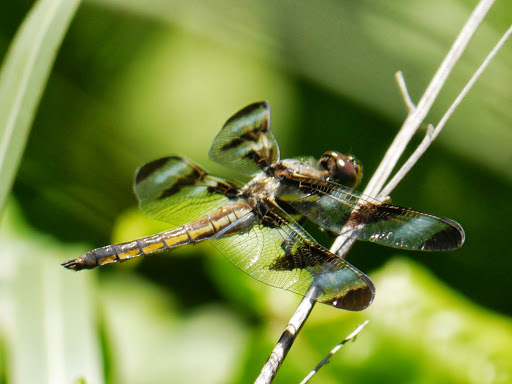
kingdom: Animalia
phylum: Arthropoda
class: Insecta
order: Odonata
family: Libellulidae
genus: Libellula
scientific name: Libellula pulchella
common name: Twelve-spotted skimmer
